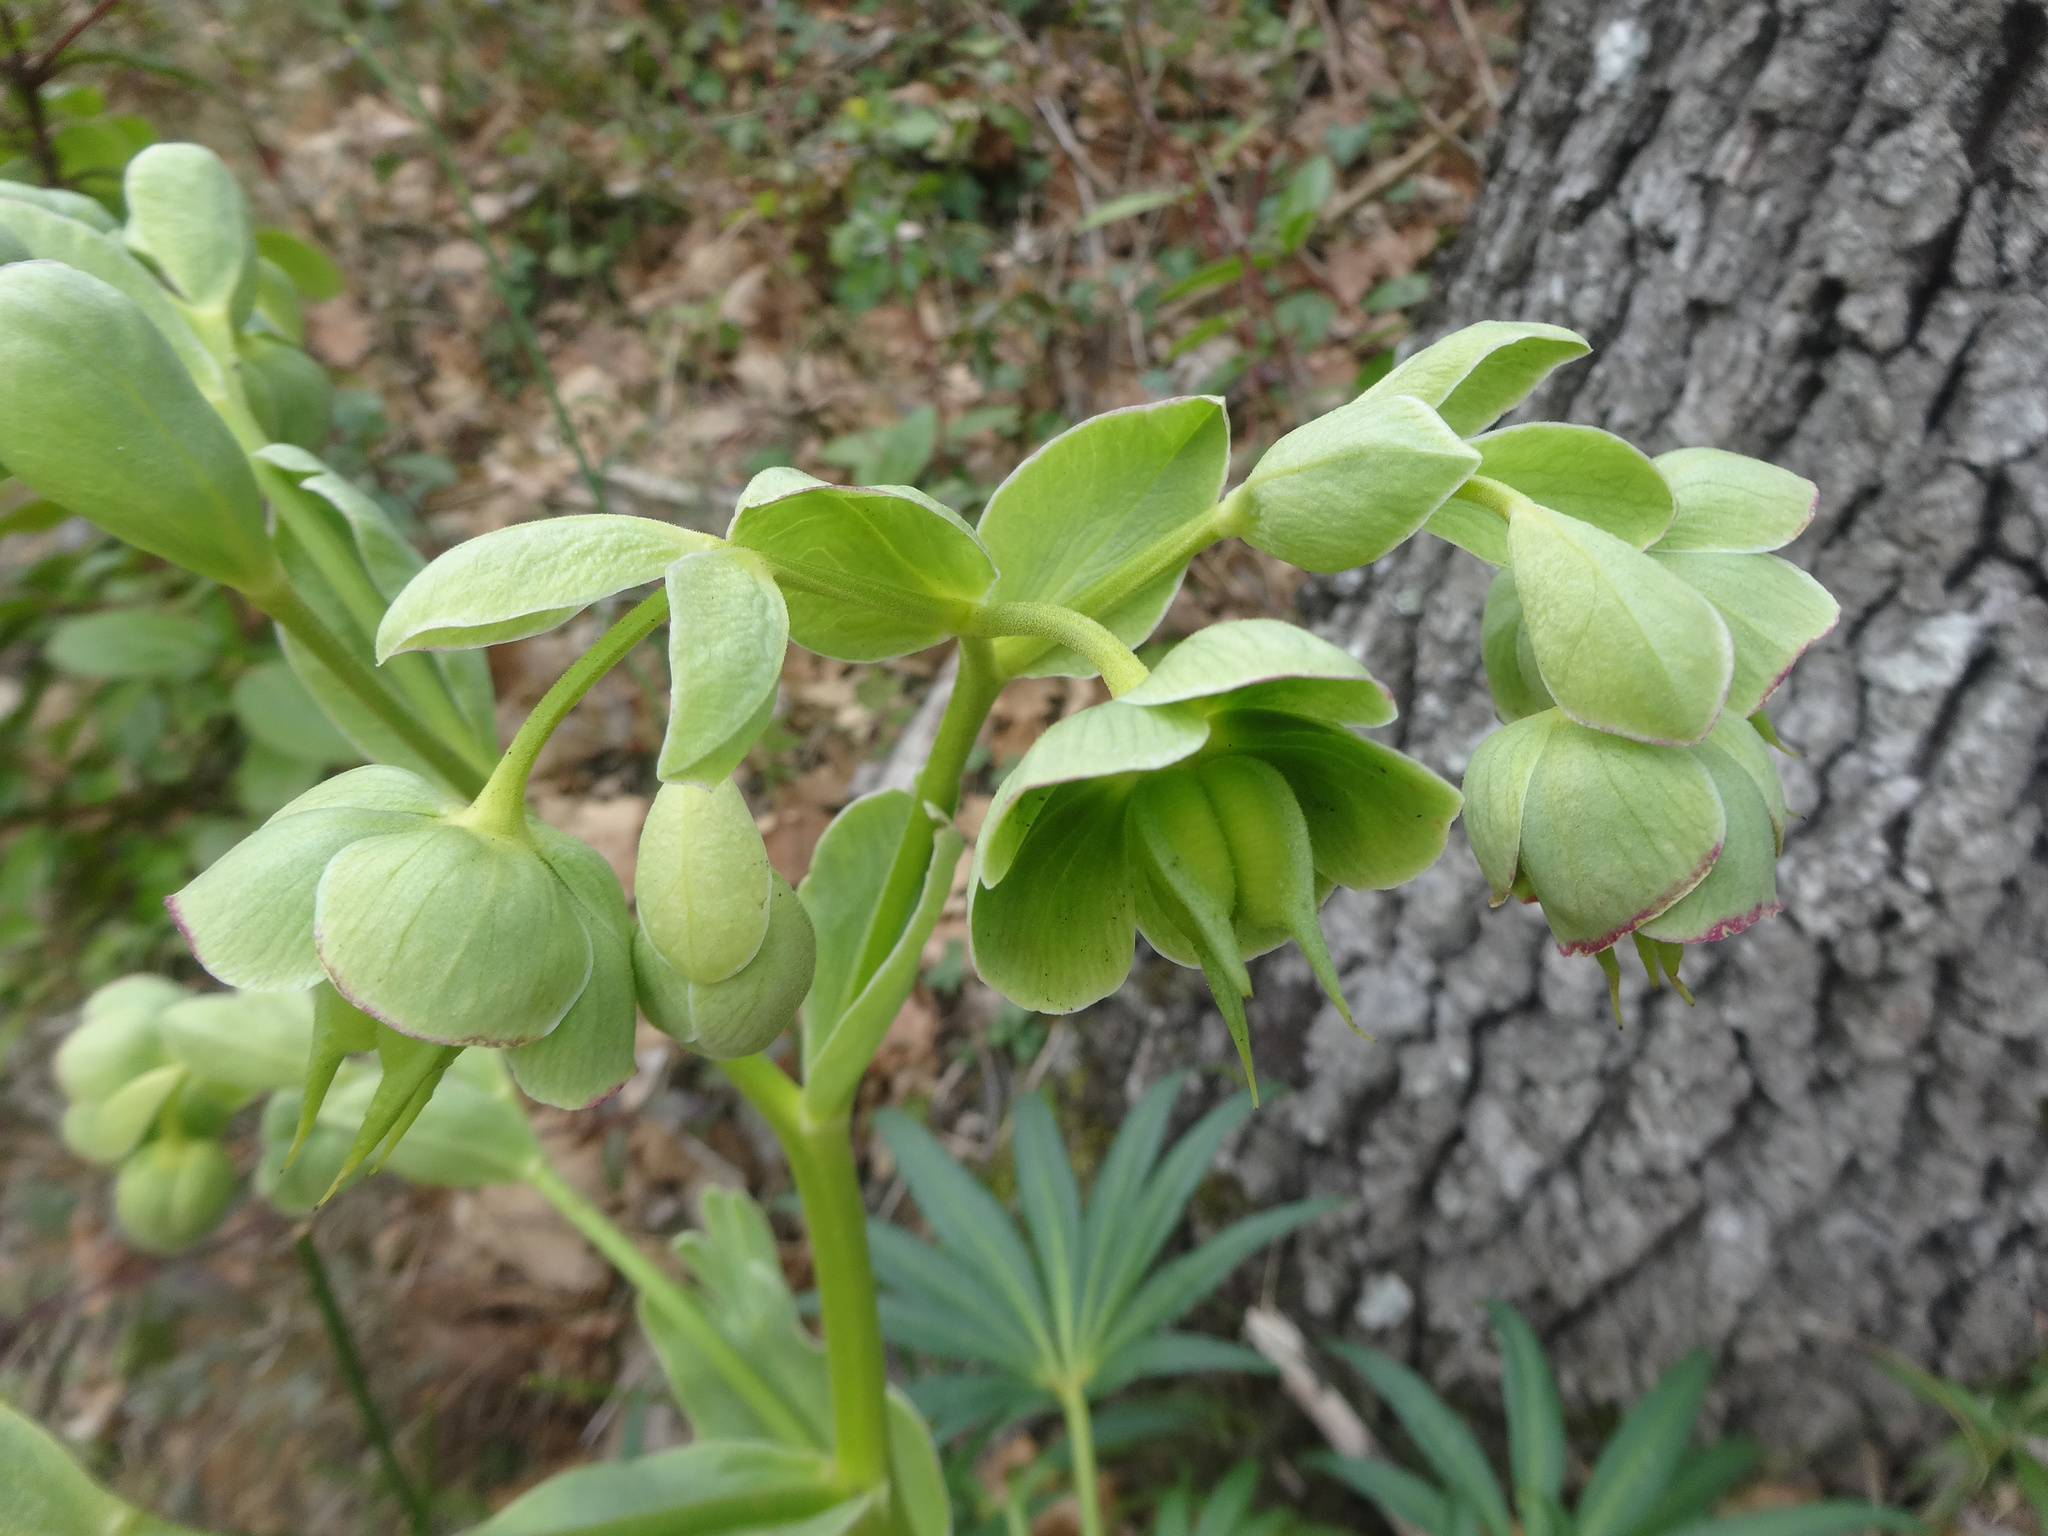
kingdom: Plantae
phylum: Tracheophyta
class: Magnoliopsida
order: Ranunculales
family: Ranunculaceae
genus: Helleborus
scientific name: Helleborus foetidus
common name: Stinking hellebore
